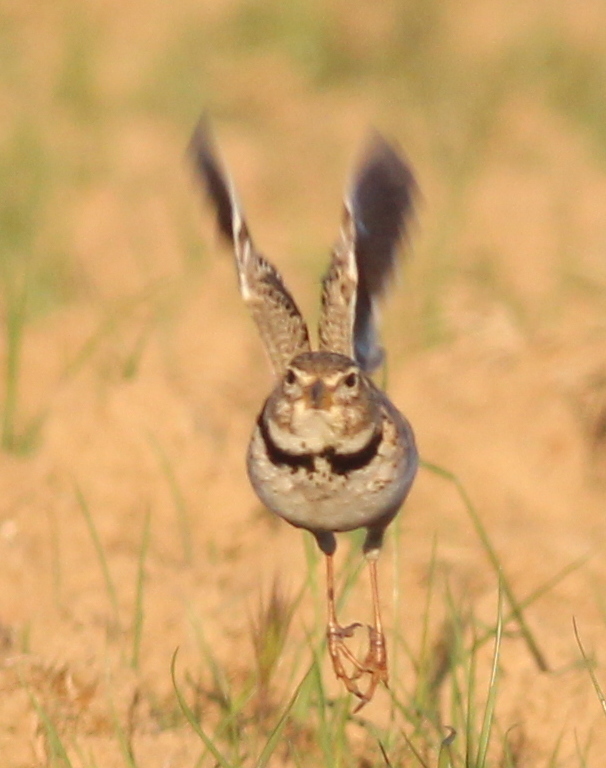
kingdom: Animalia
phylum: Chordata
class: Aves
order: Passeriformes
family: Alaudidae
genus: Melanocorypha
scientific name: Melanocorypha calandra
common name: Calandra lark
